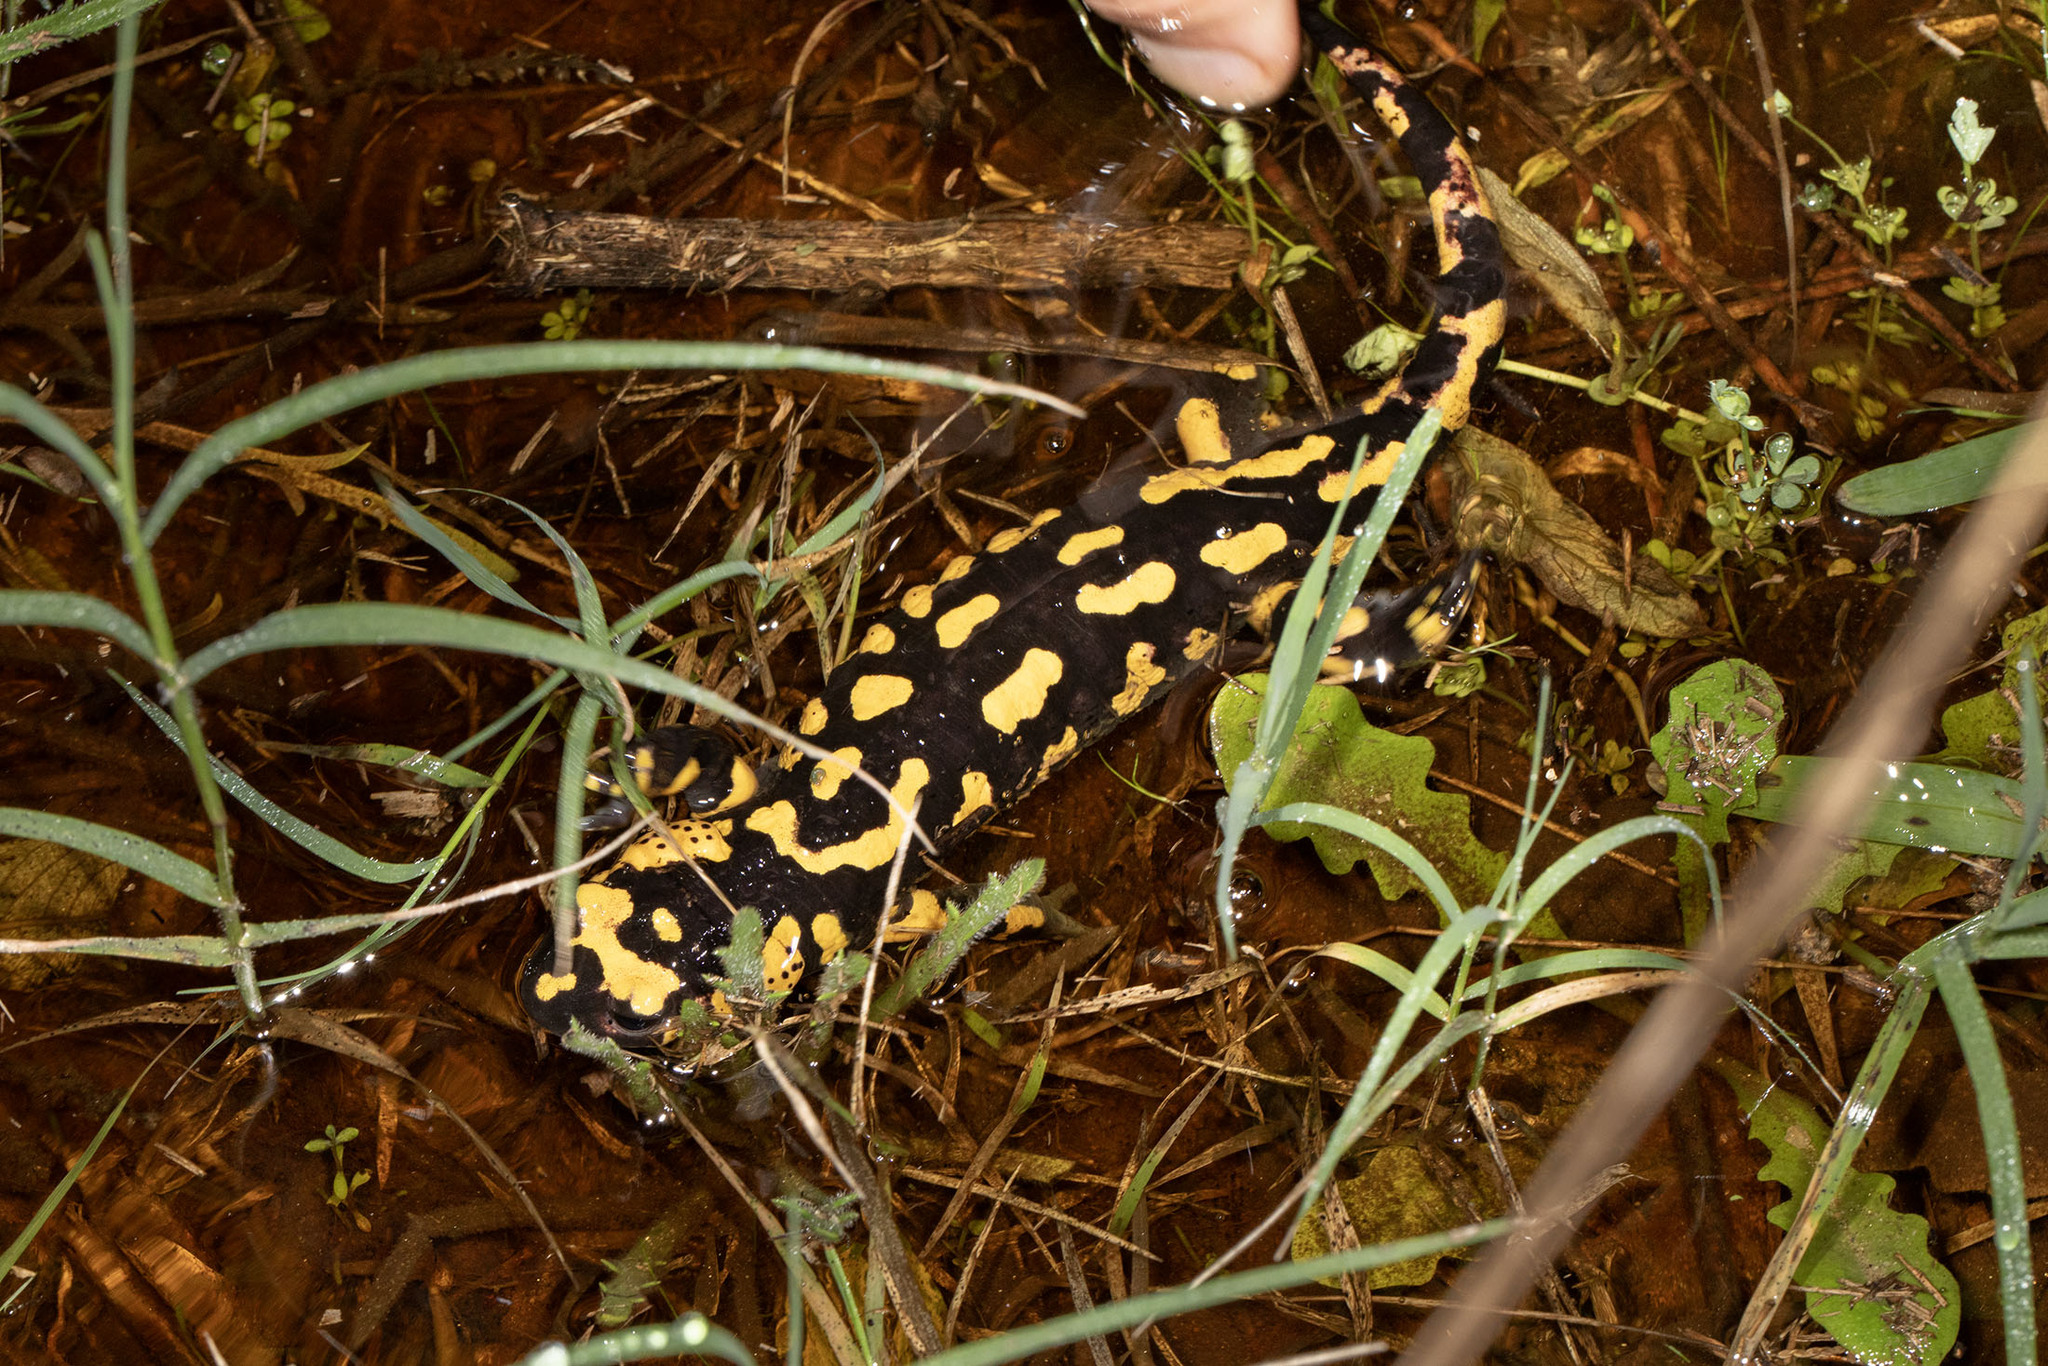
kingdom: Animalia
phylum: Chordata
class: Amphibia
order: Caudata
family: Salamandridae
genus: Salamandra
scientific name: Salamandra salamandra
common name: Fire salamander
